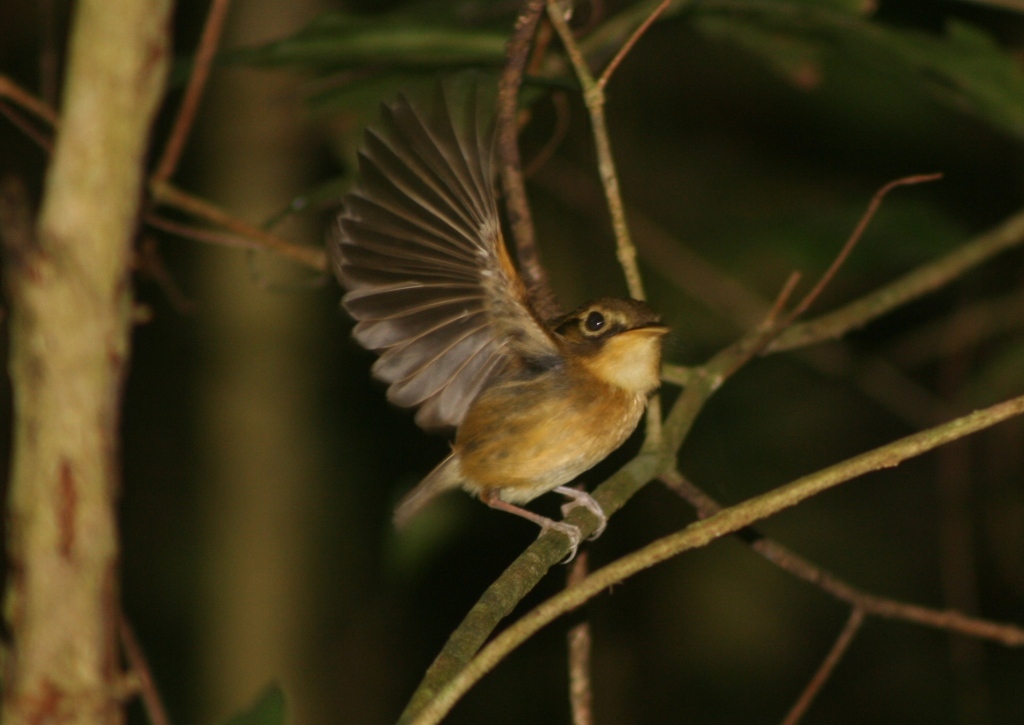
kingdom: Animalia
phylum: Chordata
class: Aves
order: Passeriformes
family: Tyrannidae
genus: Platyrinchus
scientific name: Platyrinchus mystaceus
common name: White-throated spadebill
